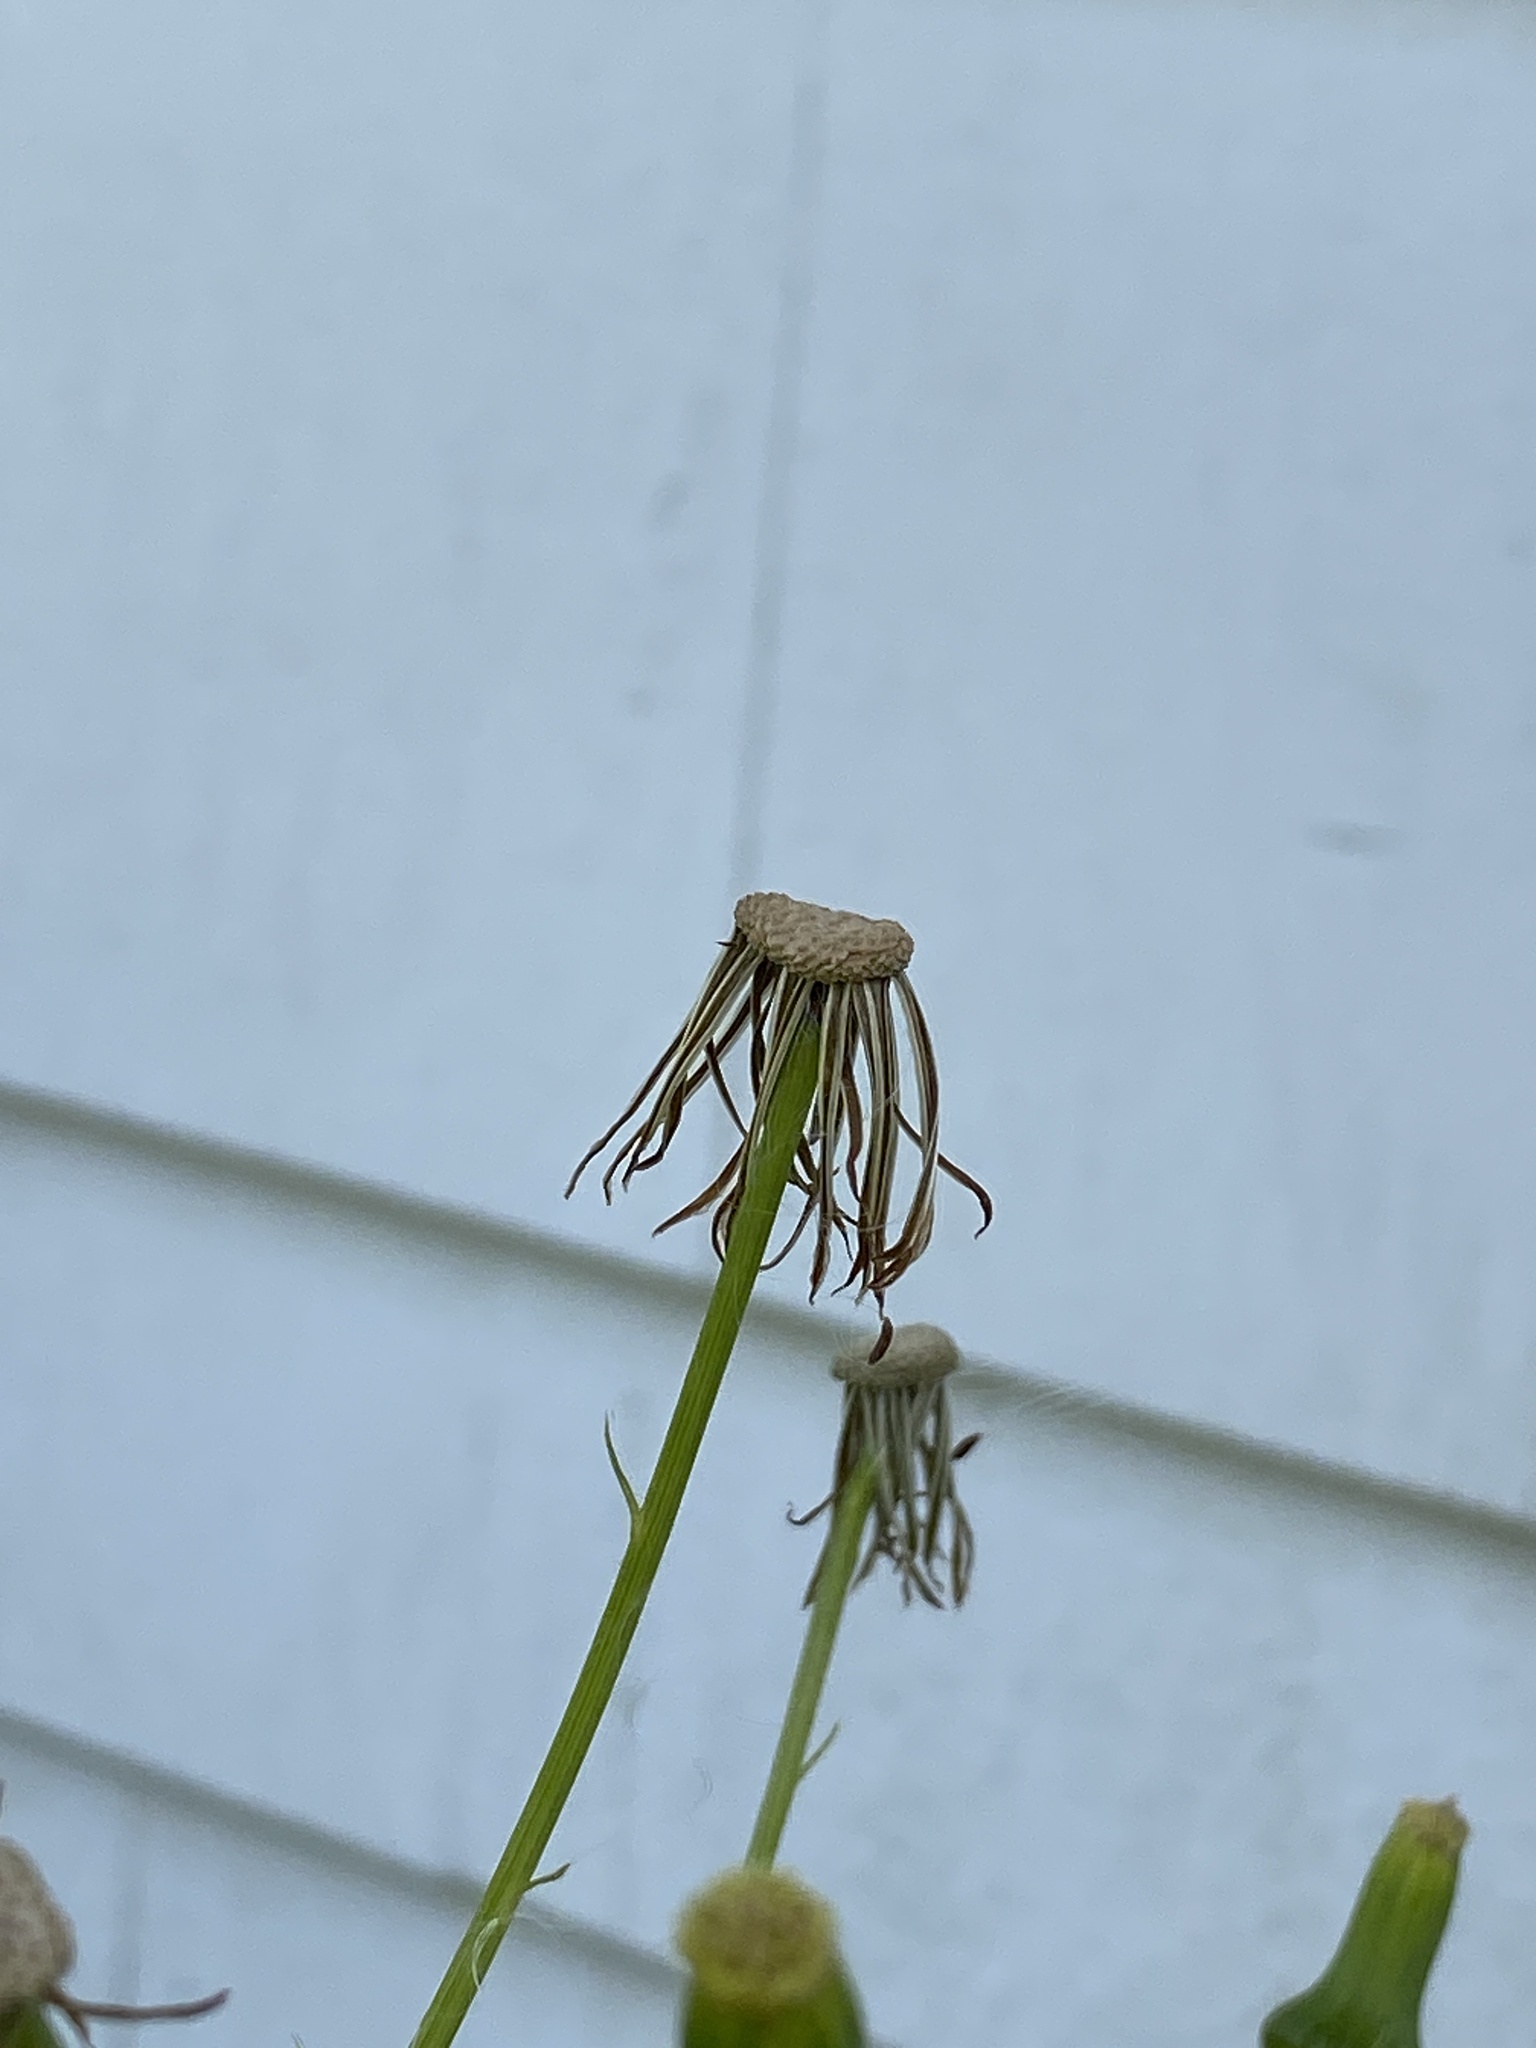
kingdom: Plantae
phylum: Tracheophyta
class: Magnoliopsida
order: Asterales
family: Asteraceae
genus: Erechtites
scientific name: Erechtites hieraciifolius
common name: American burnweed
